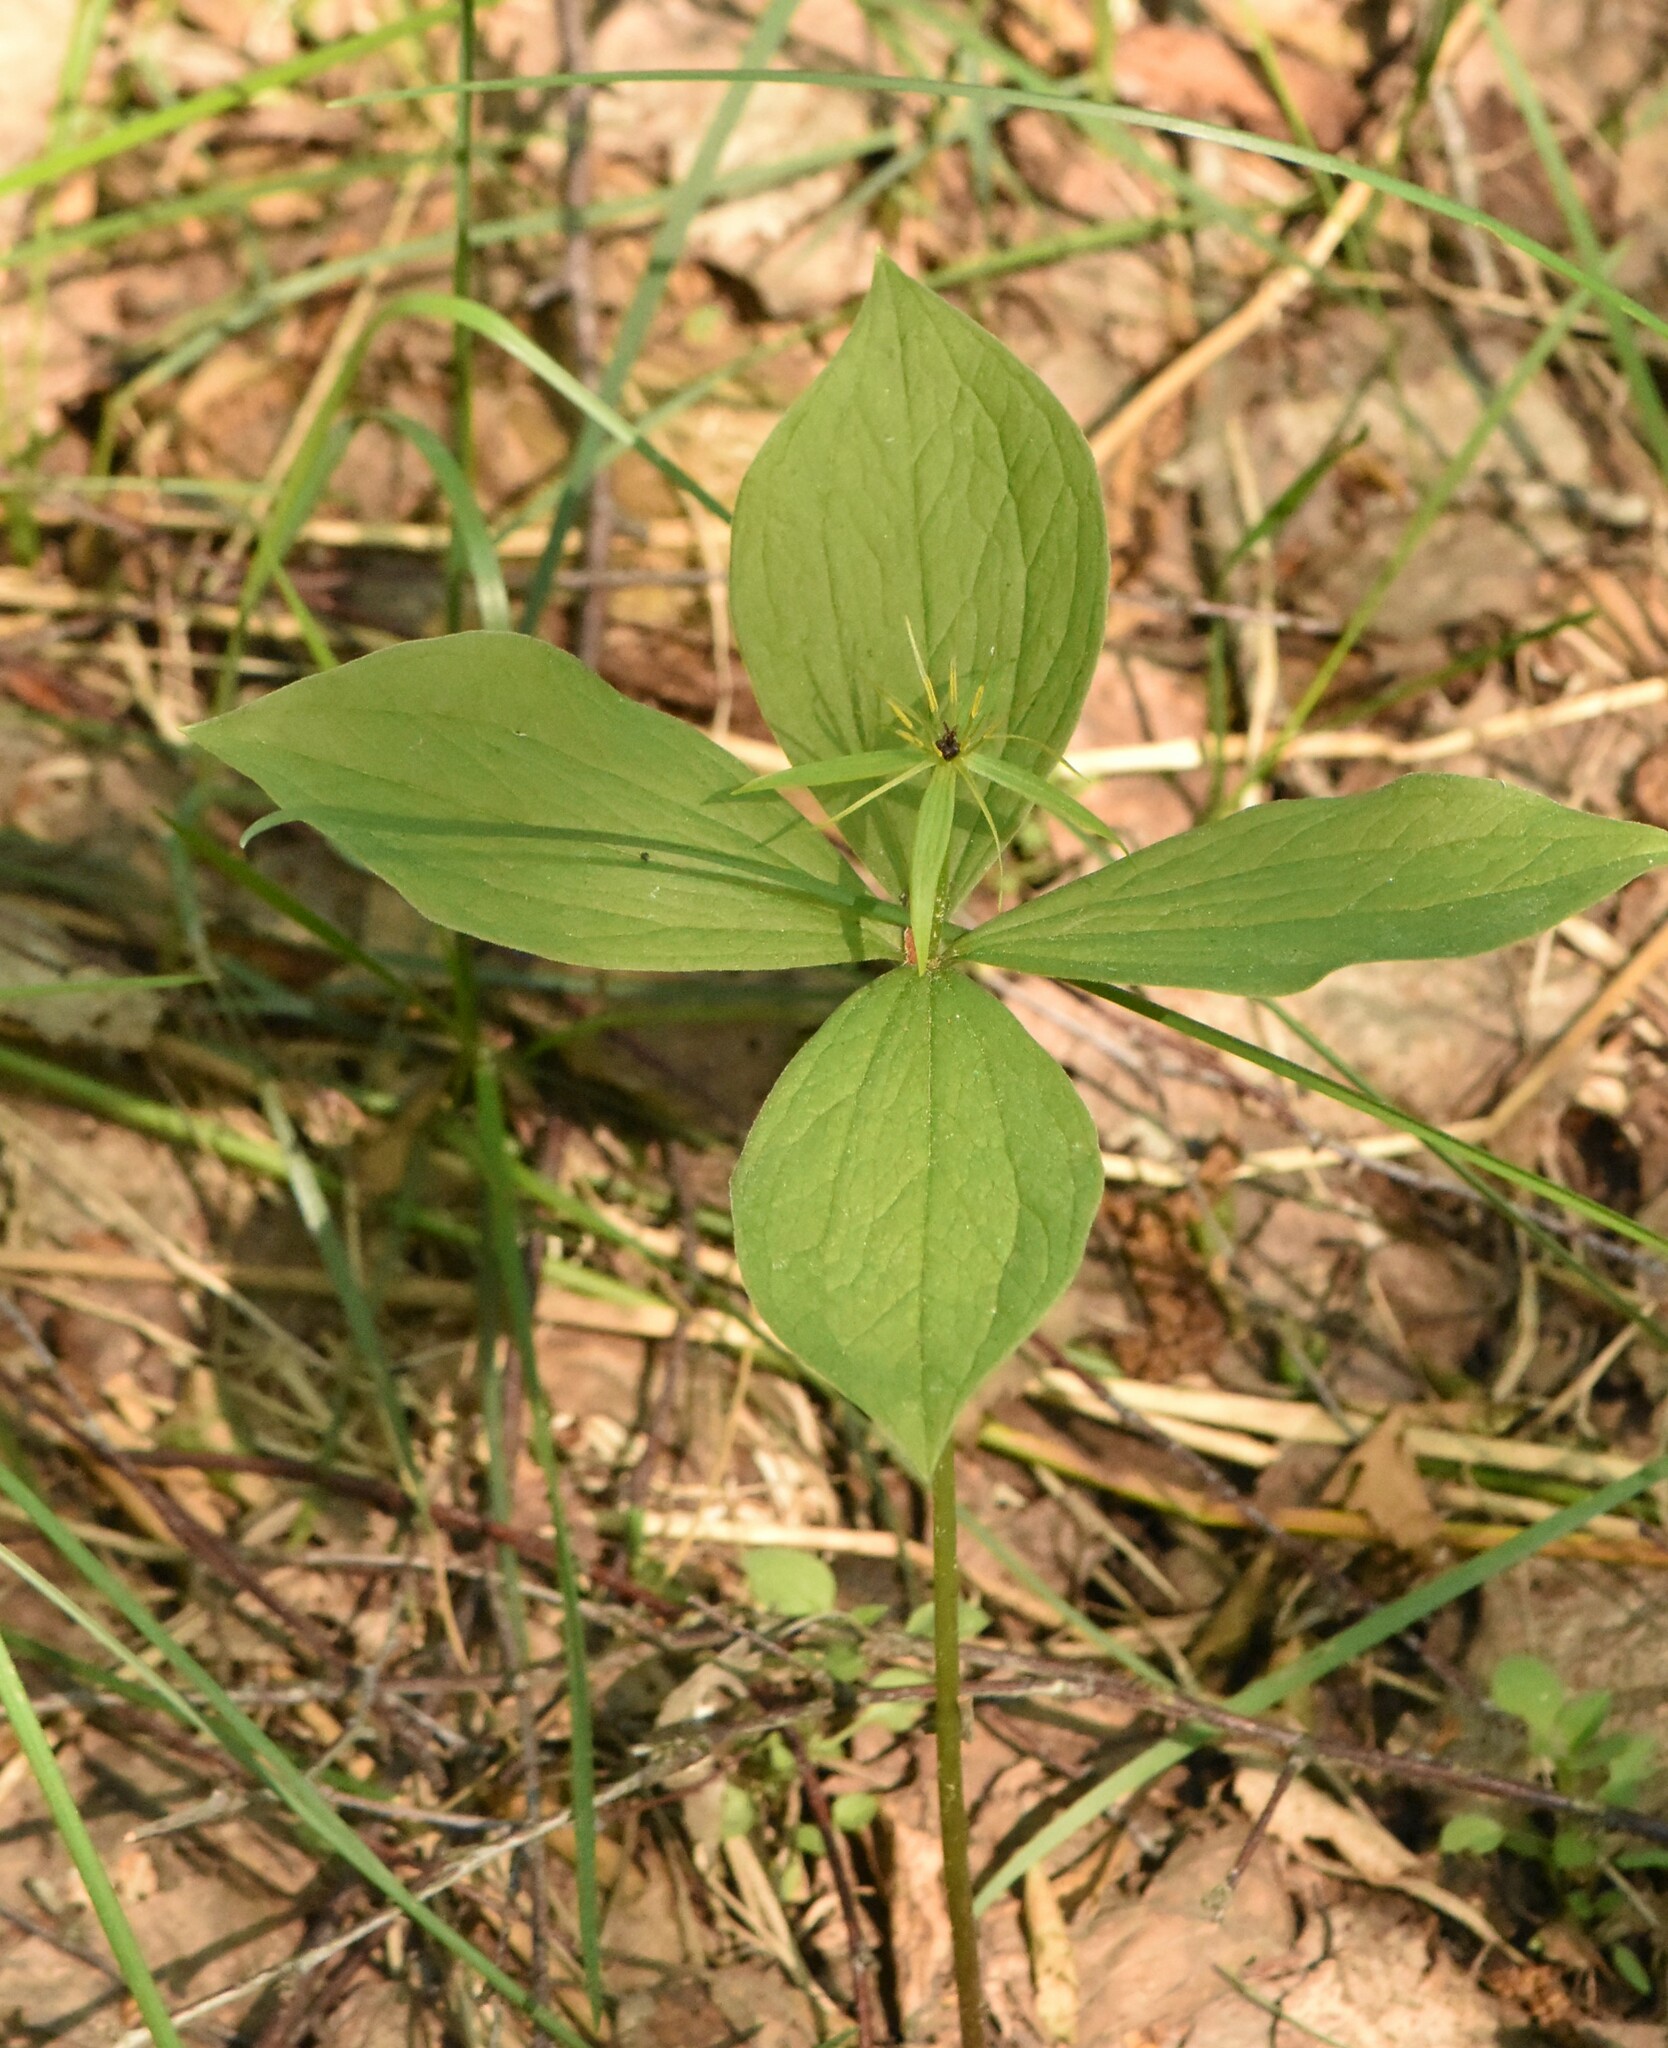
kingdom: Plantae
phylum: Tracheophyta
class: Liliopsida
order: Liliales
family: Melanthiaceae
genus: Paris
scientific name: Paris quadrifolia
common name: Herb-paris
